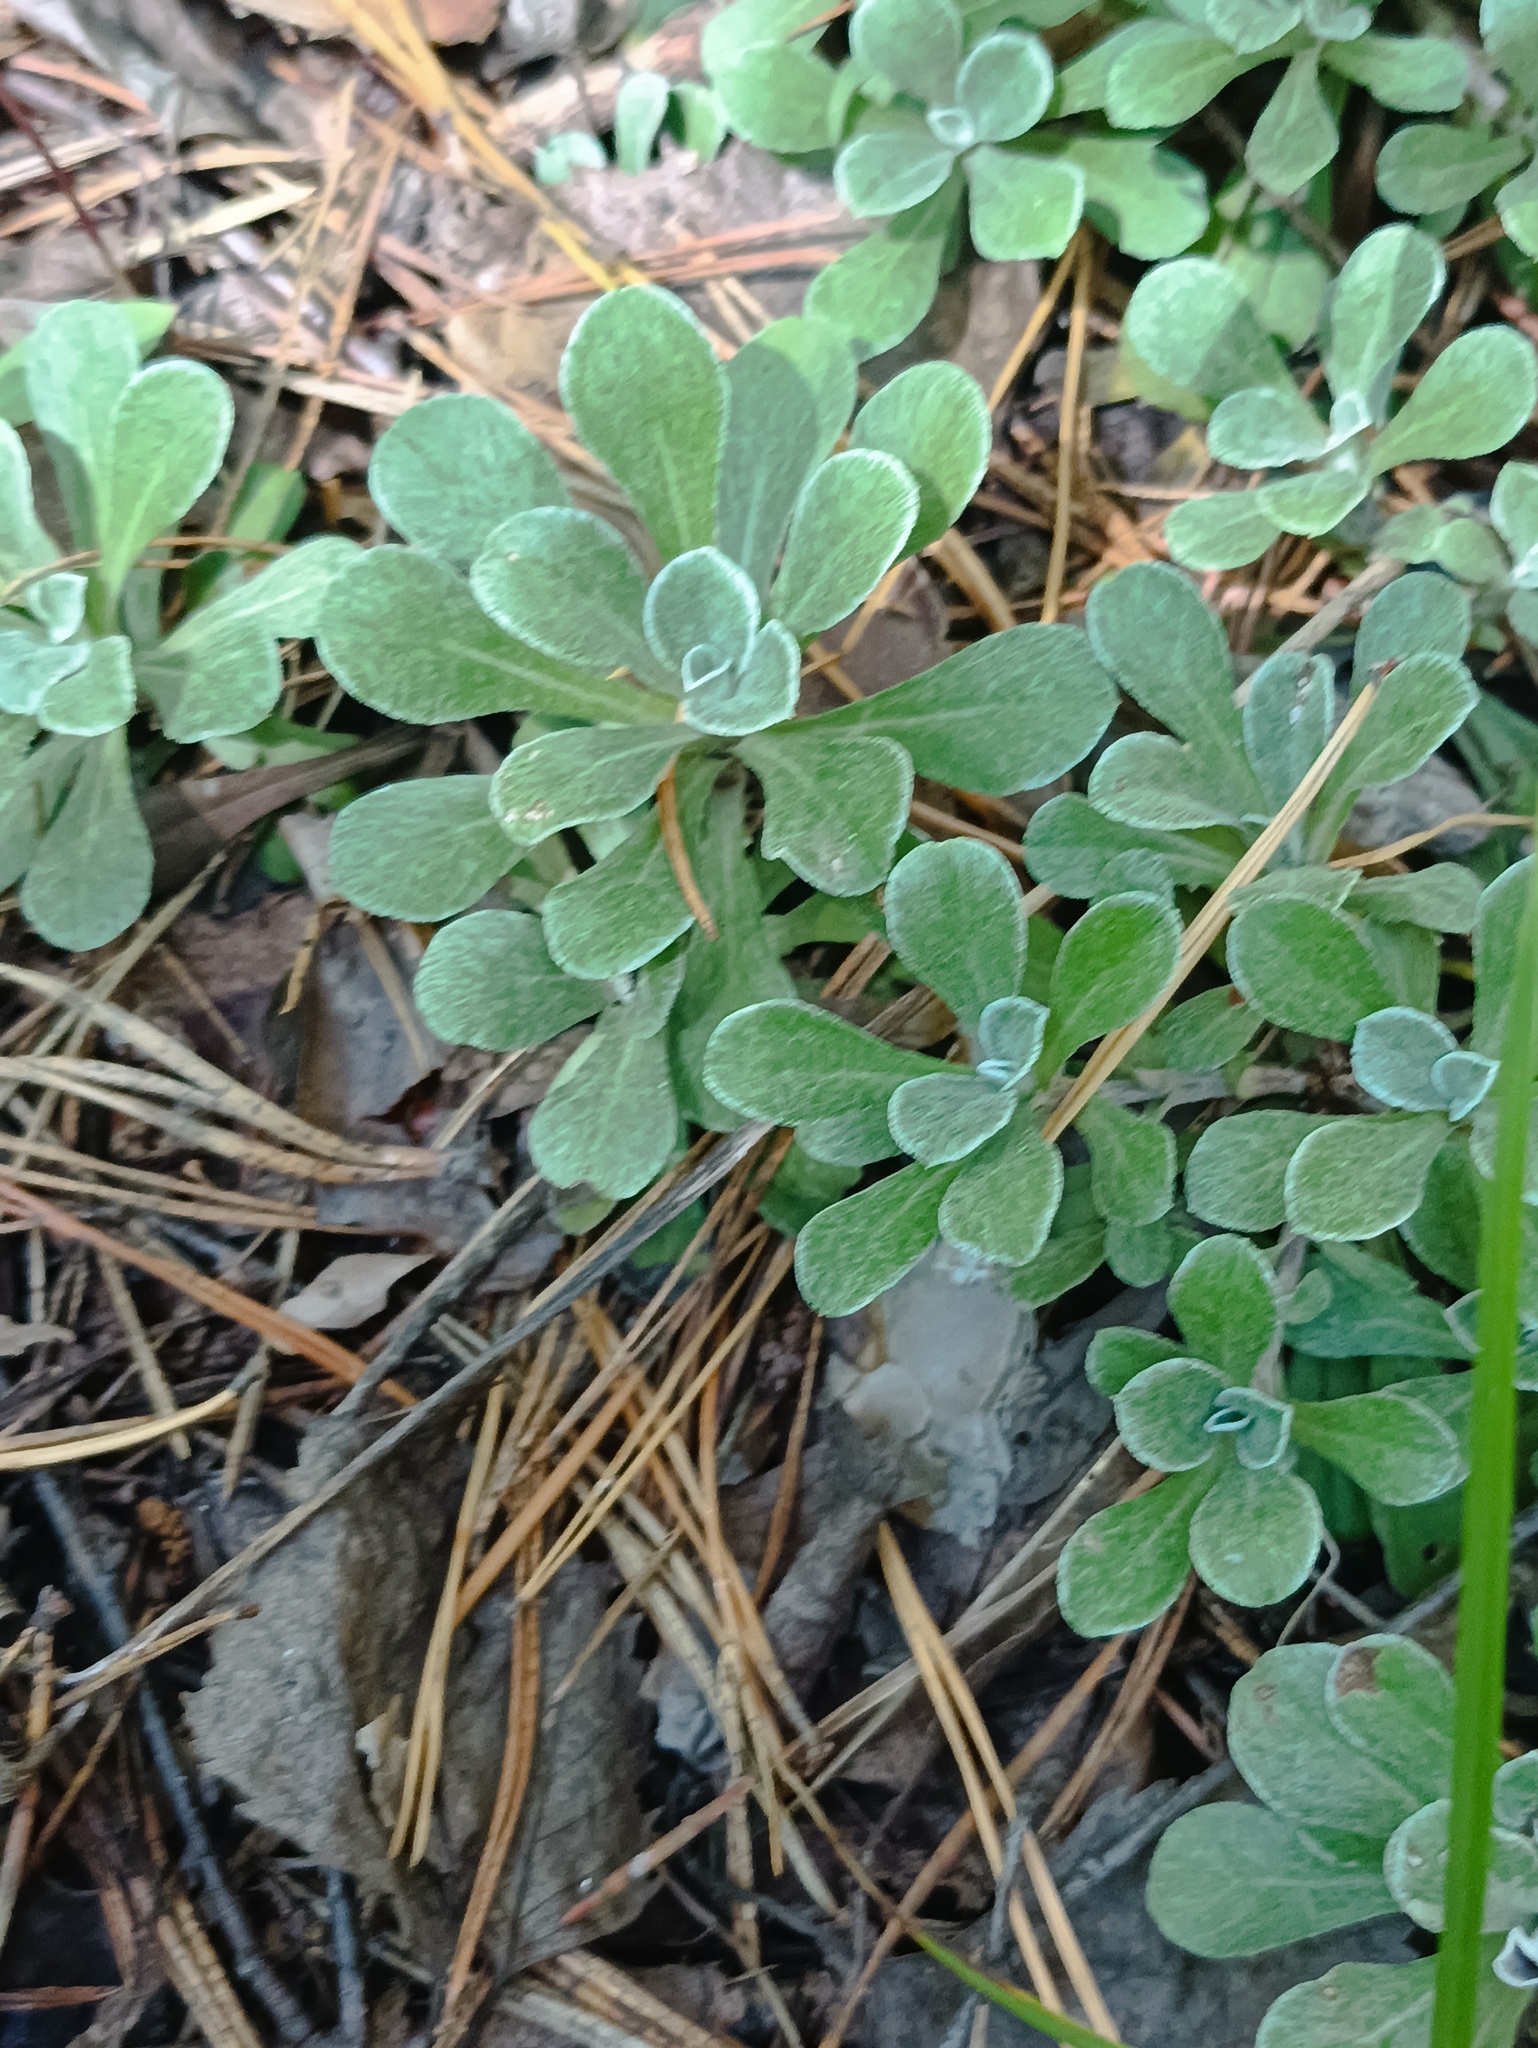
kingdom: Plantae
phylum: Tracheophyta
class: Magnoliopsida
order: Asterales
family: Asteraceae
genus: Antennaria
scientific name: Antennaria dioica
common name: Mountain everlasting
